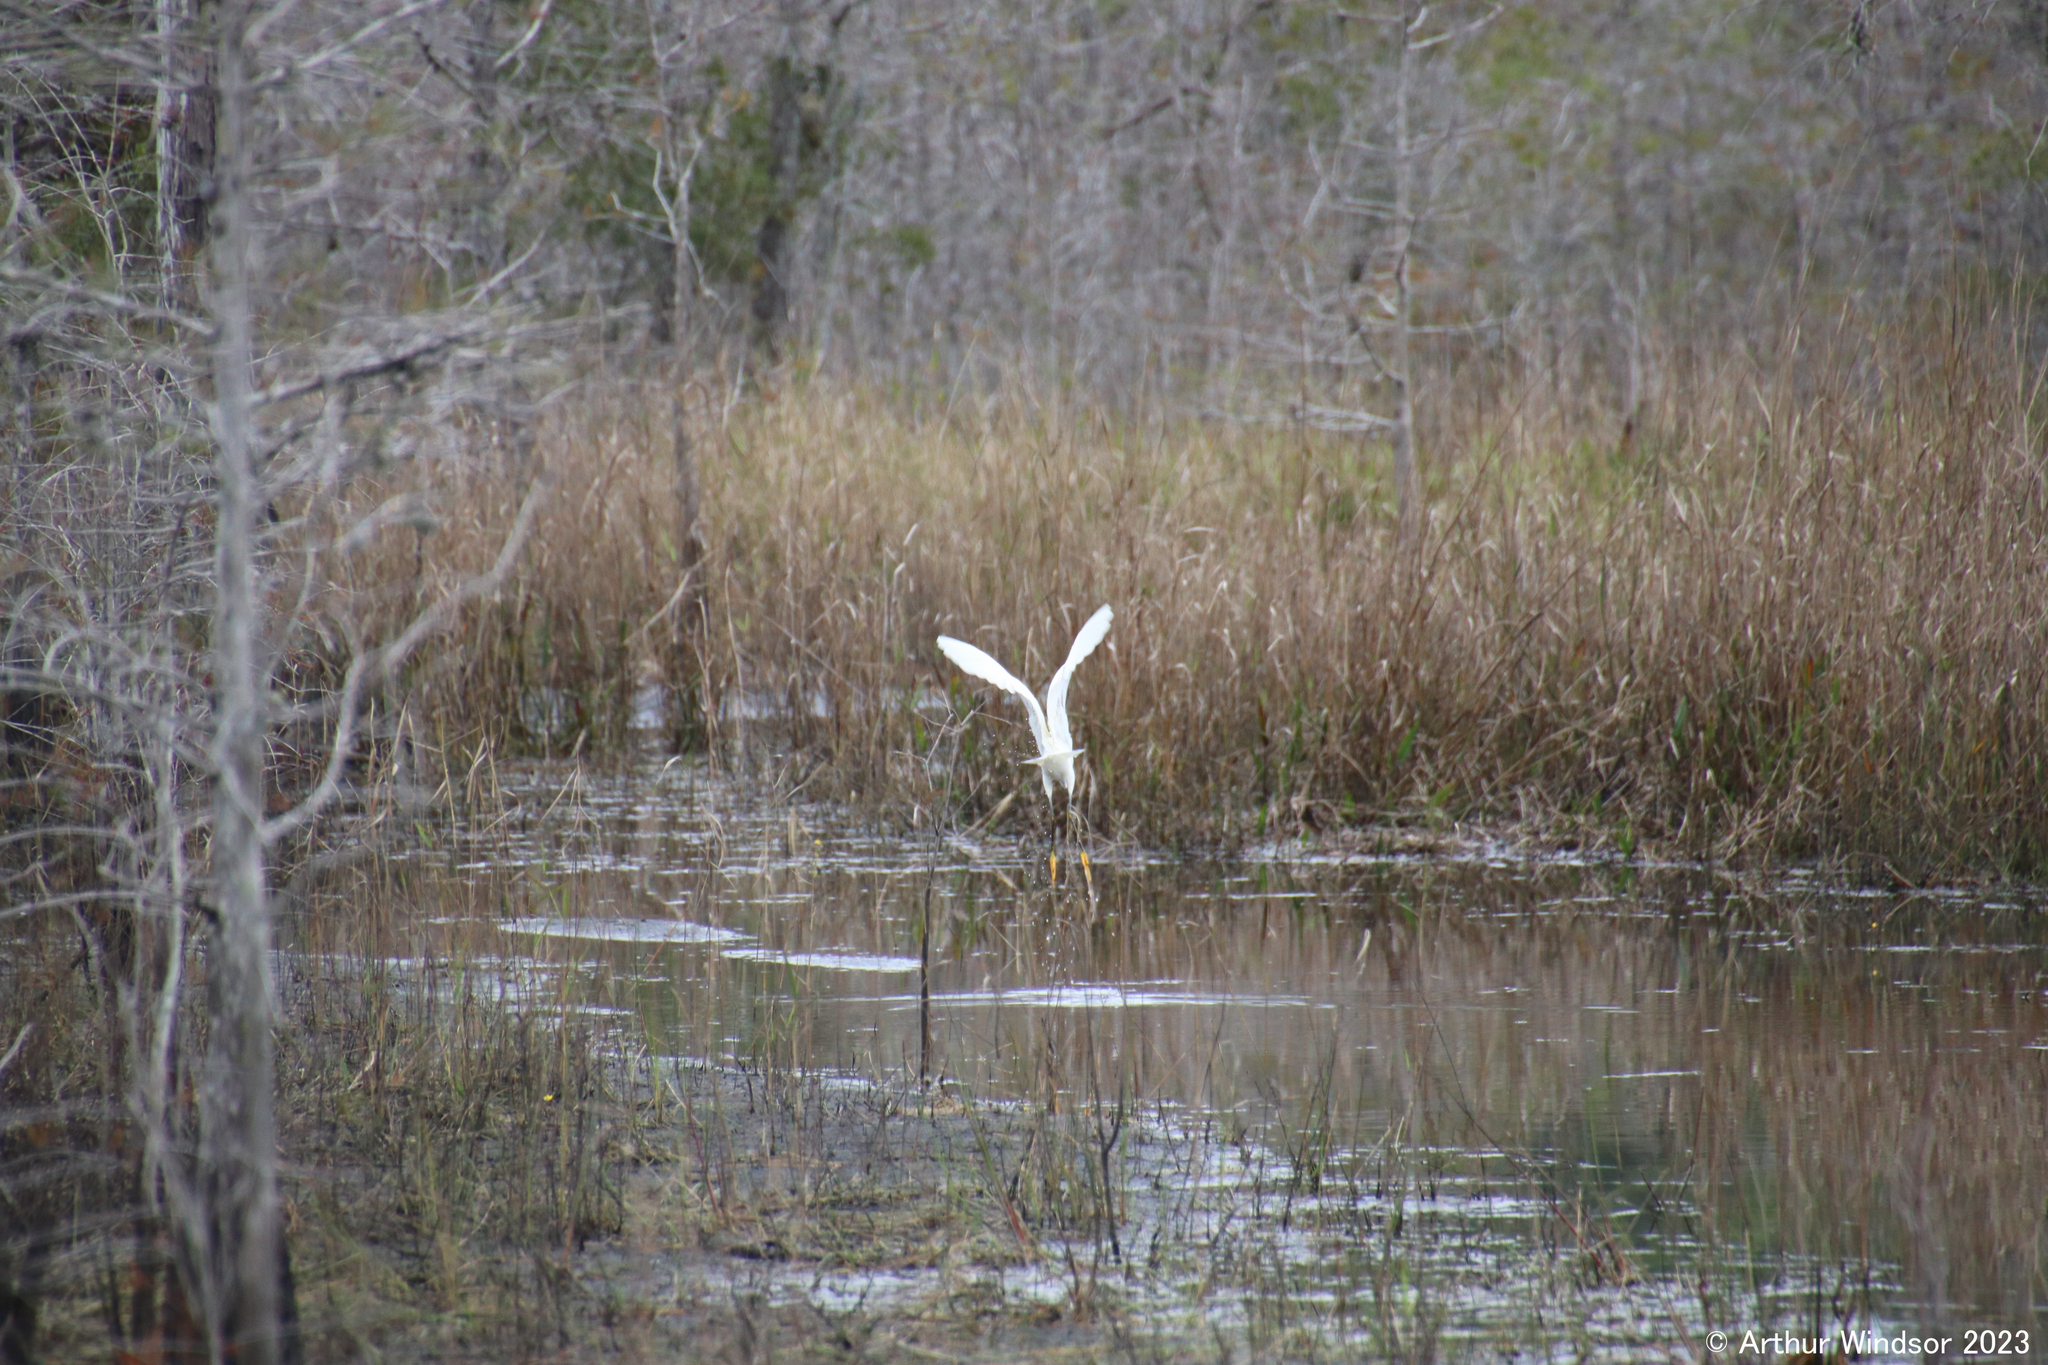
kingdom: Animalia
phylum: Chordata
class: Aves
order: Pelecaniformes
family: Ardeidae
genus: Egretta
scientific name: Egretta thula
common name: Snowy egret
